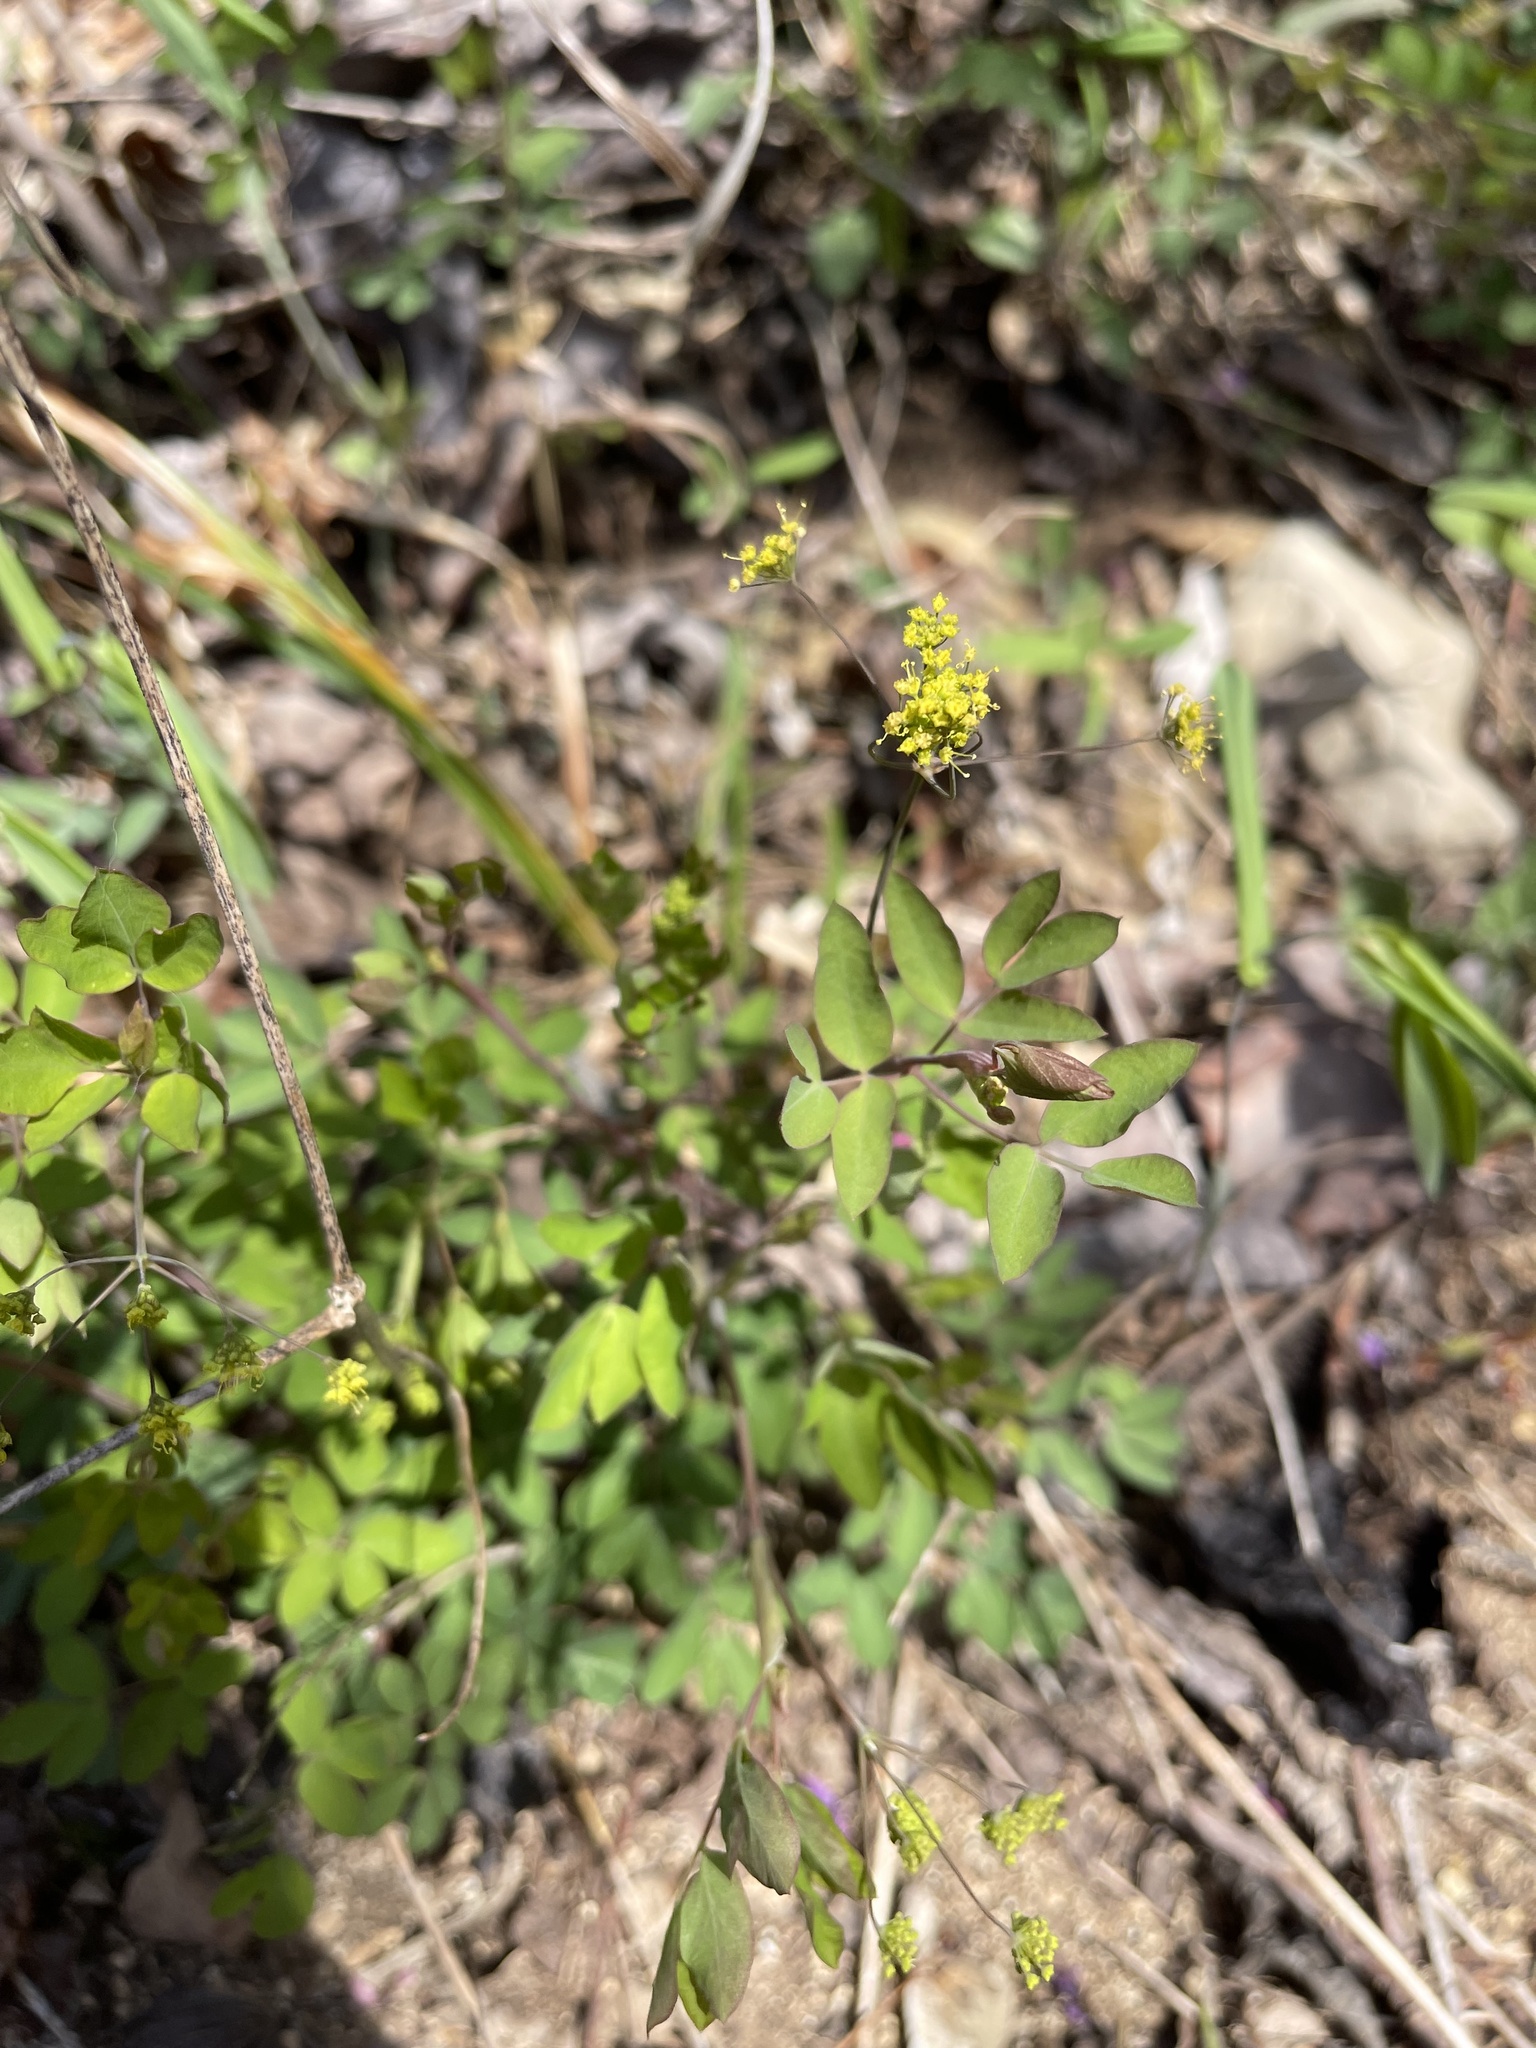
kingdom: Plantae
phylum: Tracheophyta
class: Magnoliopsida
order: Apiales
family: Apiaceae
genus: Taenidia
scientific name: Taenidia integerrima
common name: Golden alexander
